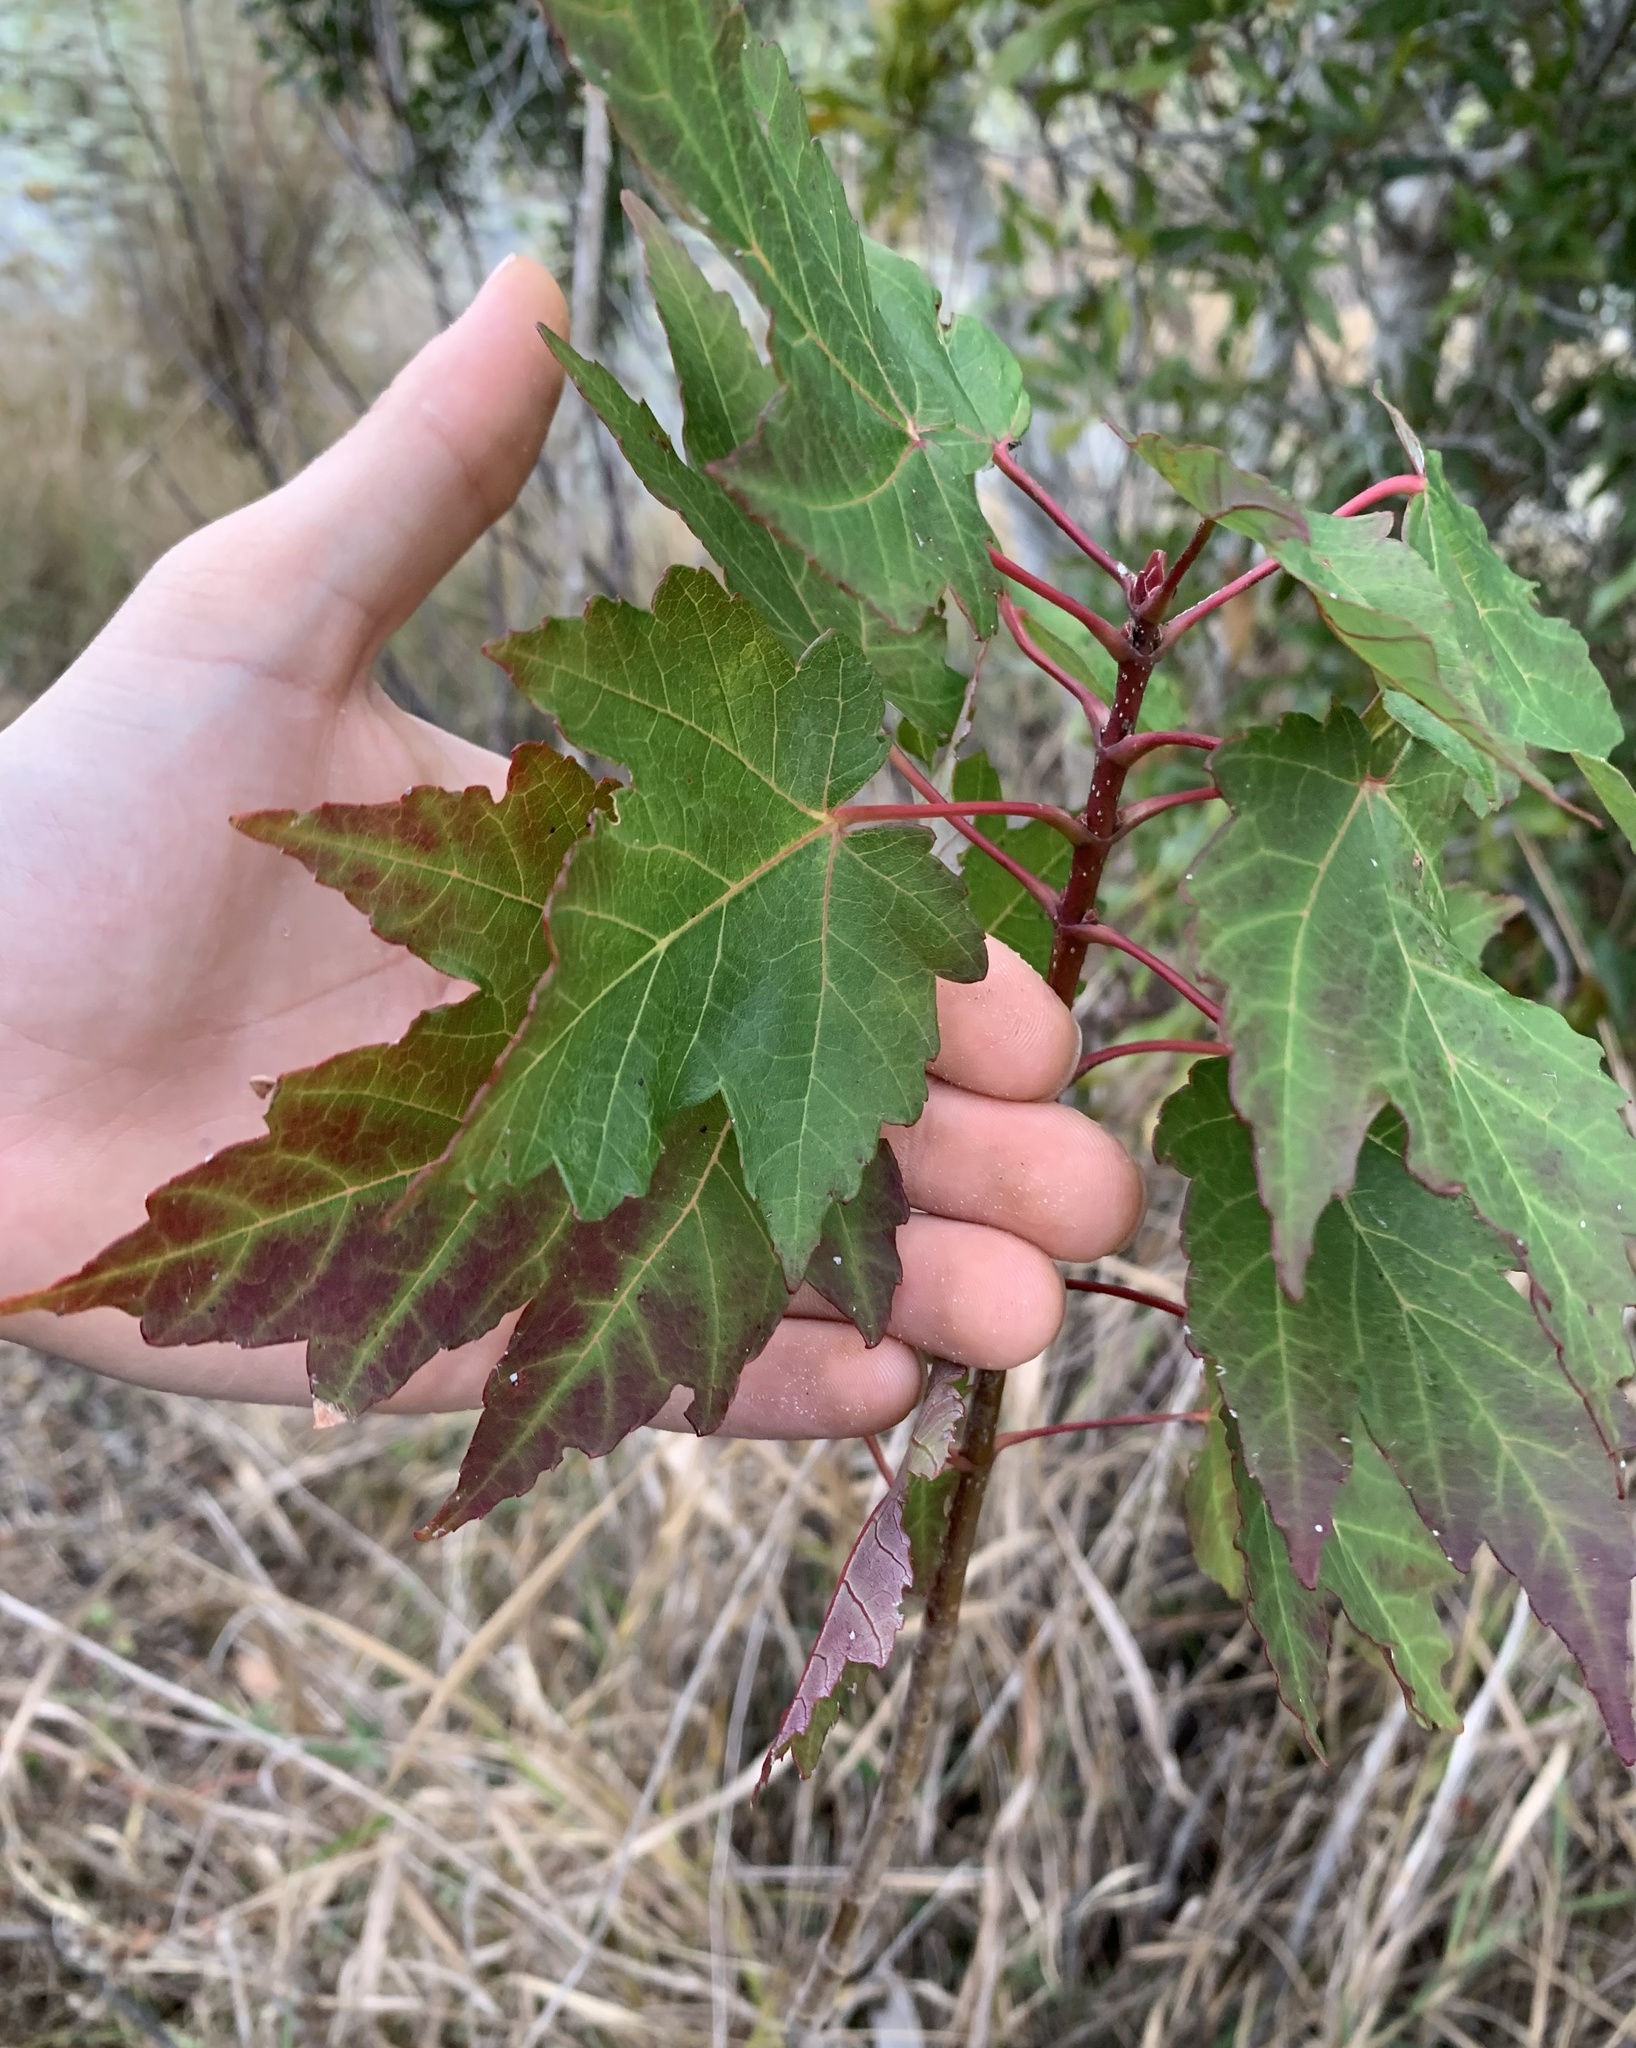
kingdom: Plantae
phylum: Tracheophyta
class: Magnoliopsida
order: Sapindales
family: Sapindaceae
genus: Acer
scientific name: Acer rubrum
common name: Red maple
